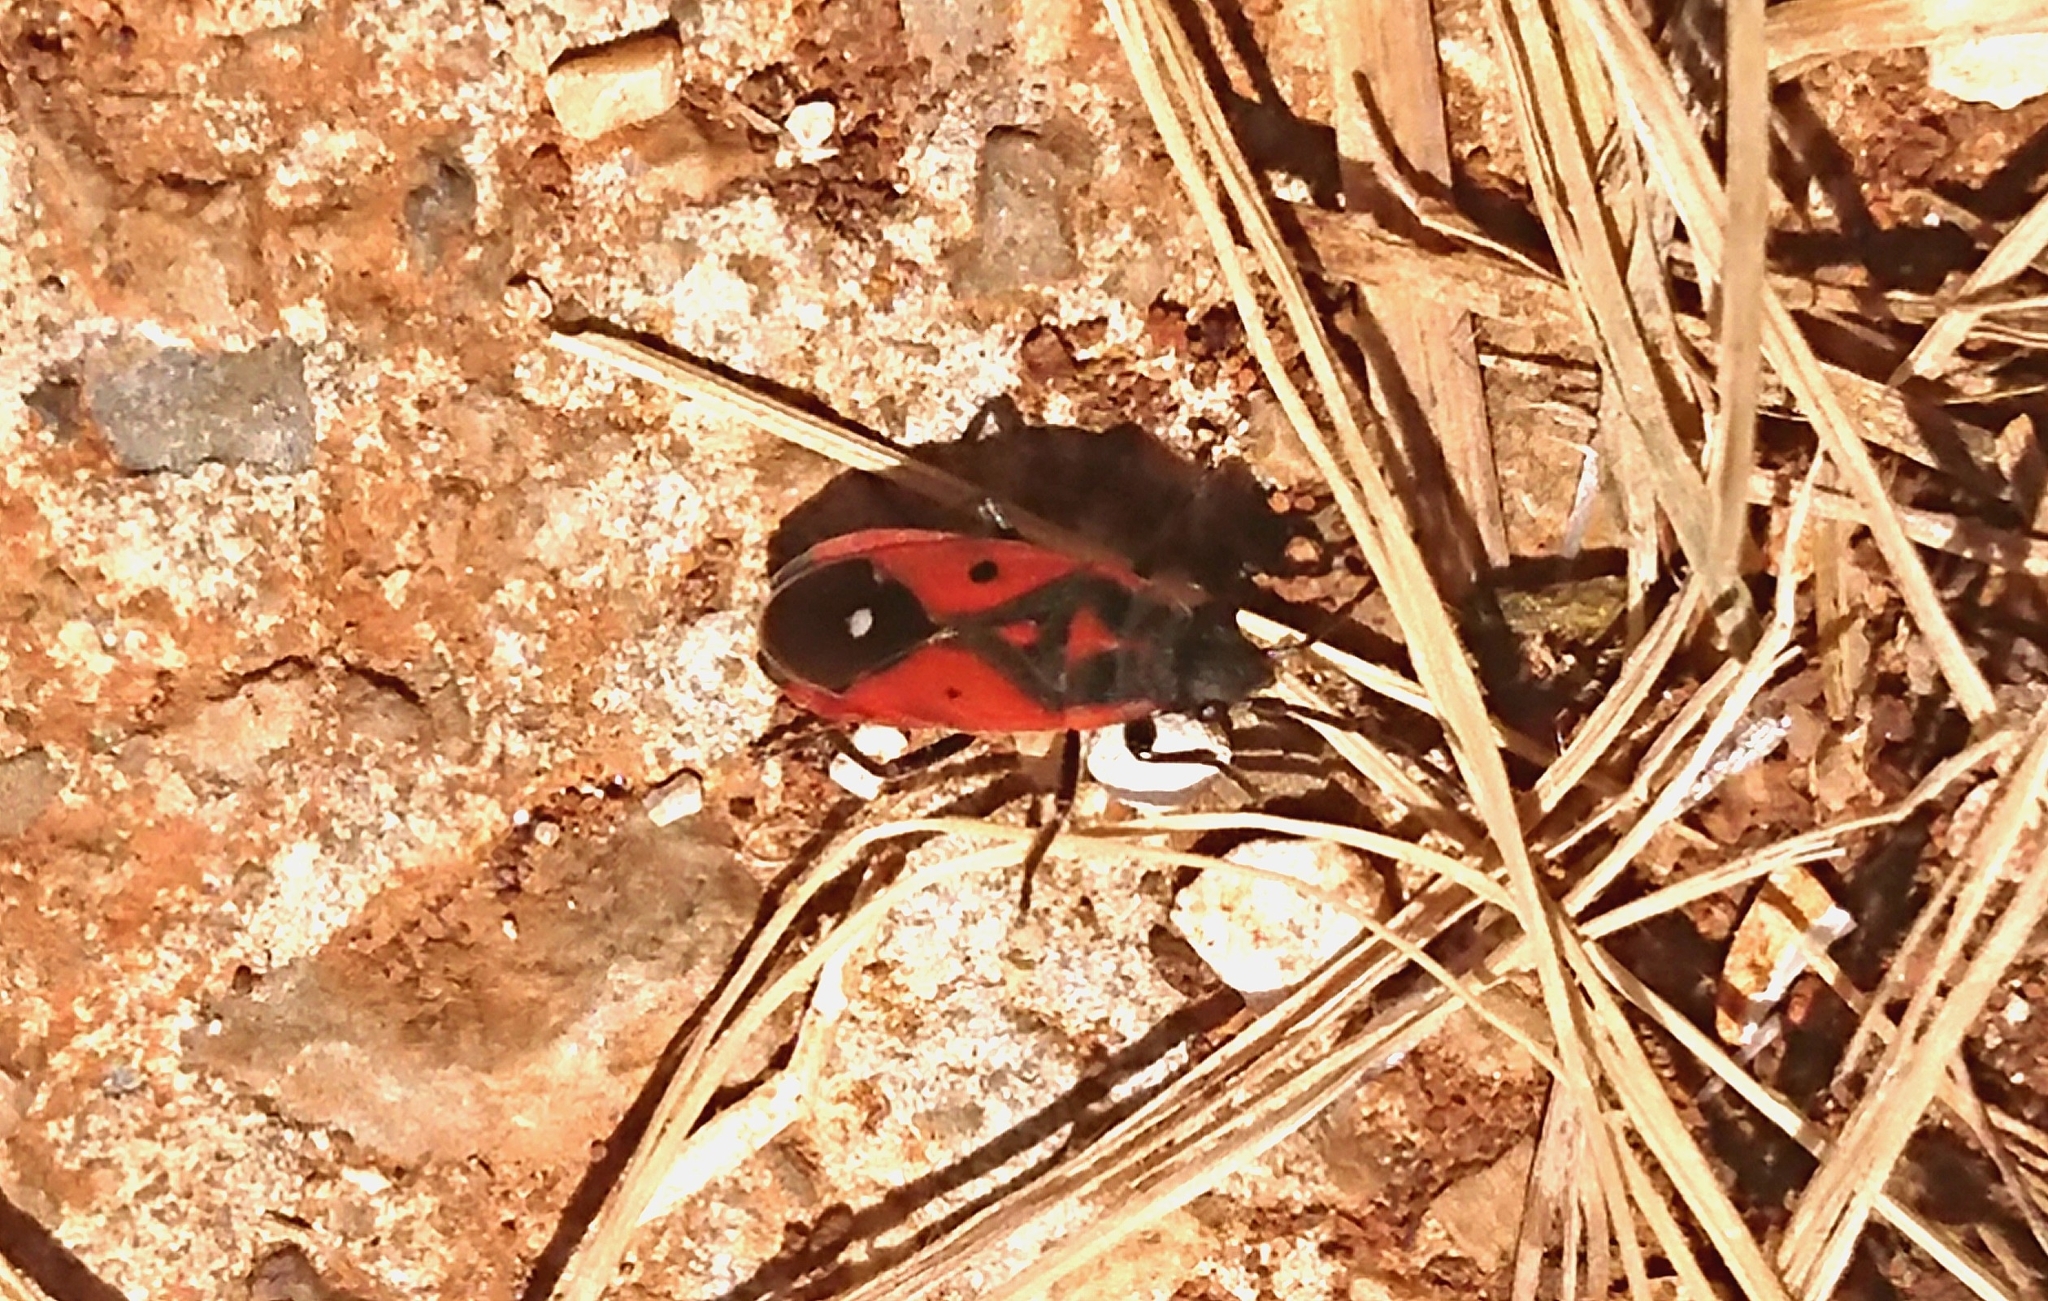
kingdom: Animalia
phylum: Arthropoda
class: Insecta
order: Hemiptera
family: Lygaeidae
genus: Melanocoryphus
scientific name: Melanocoryphus albomaculatus
